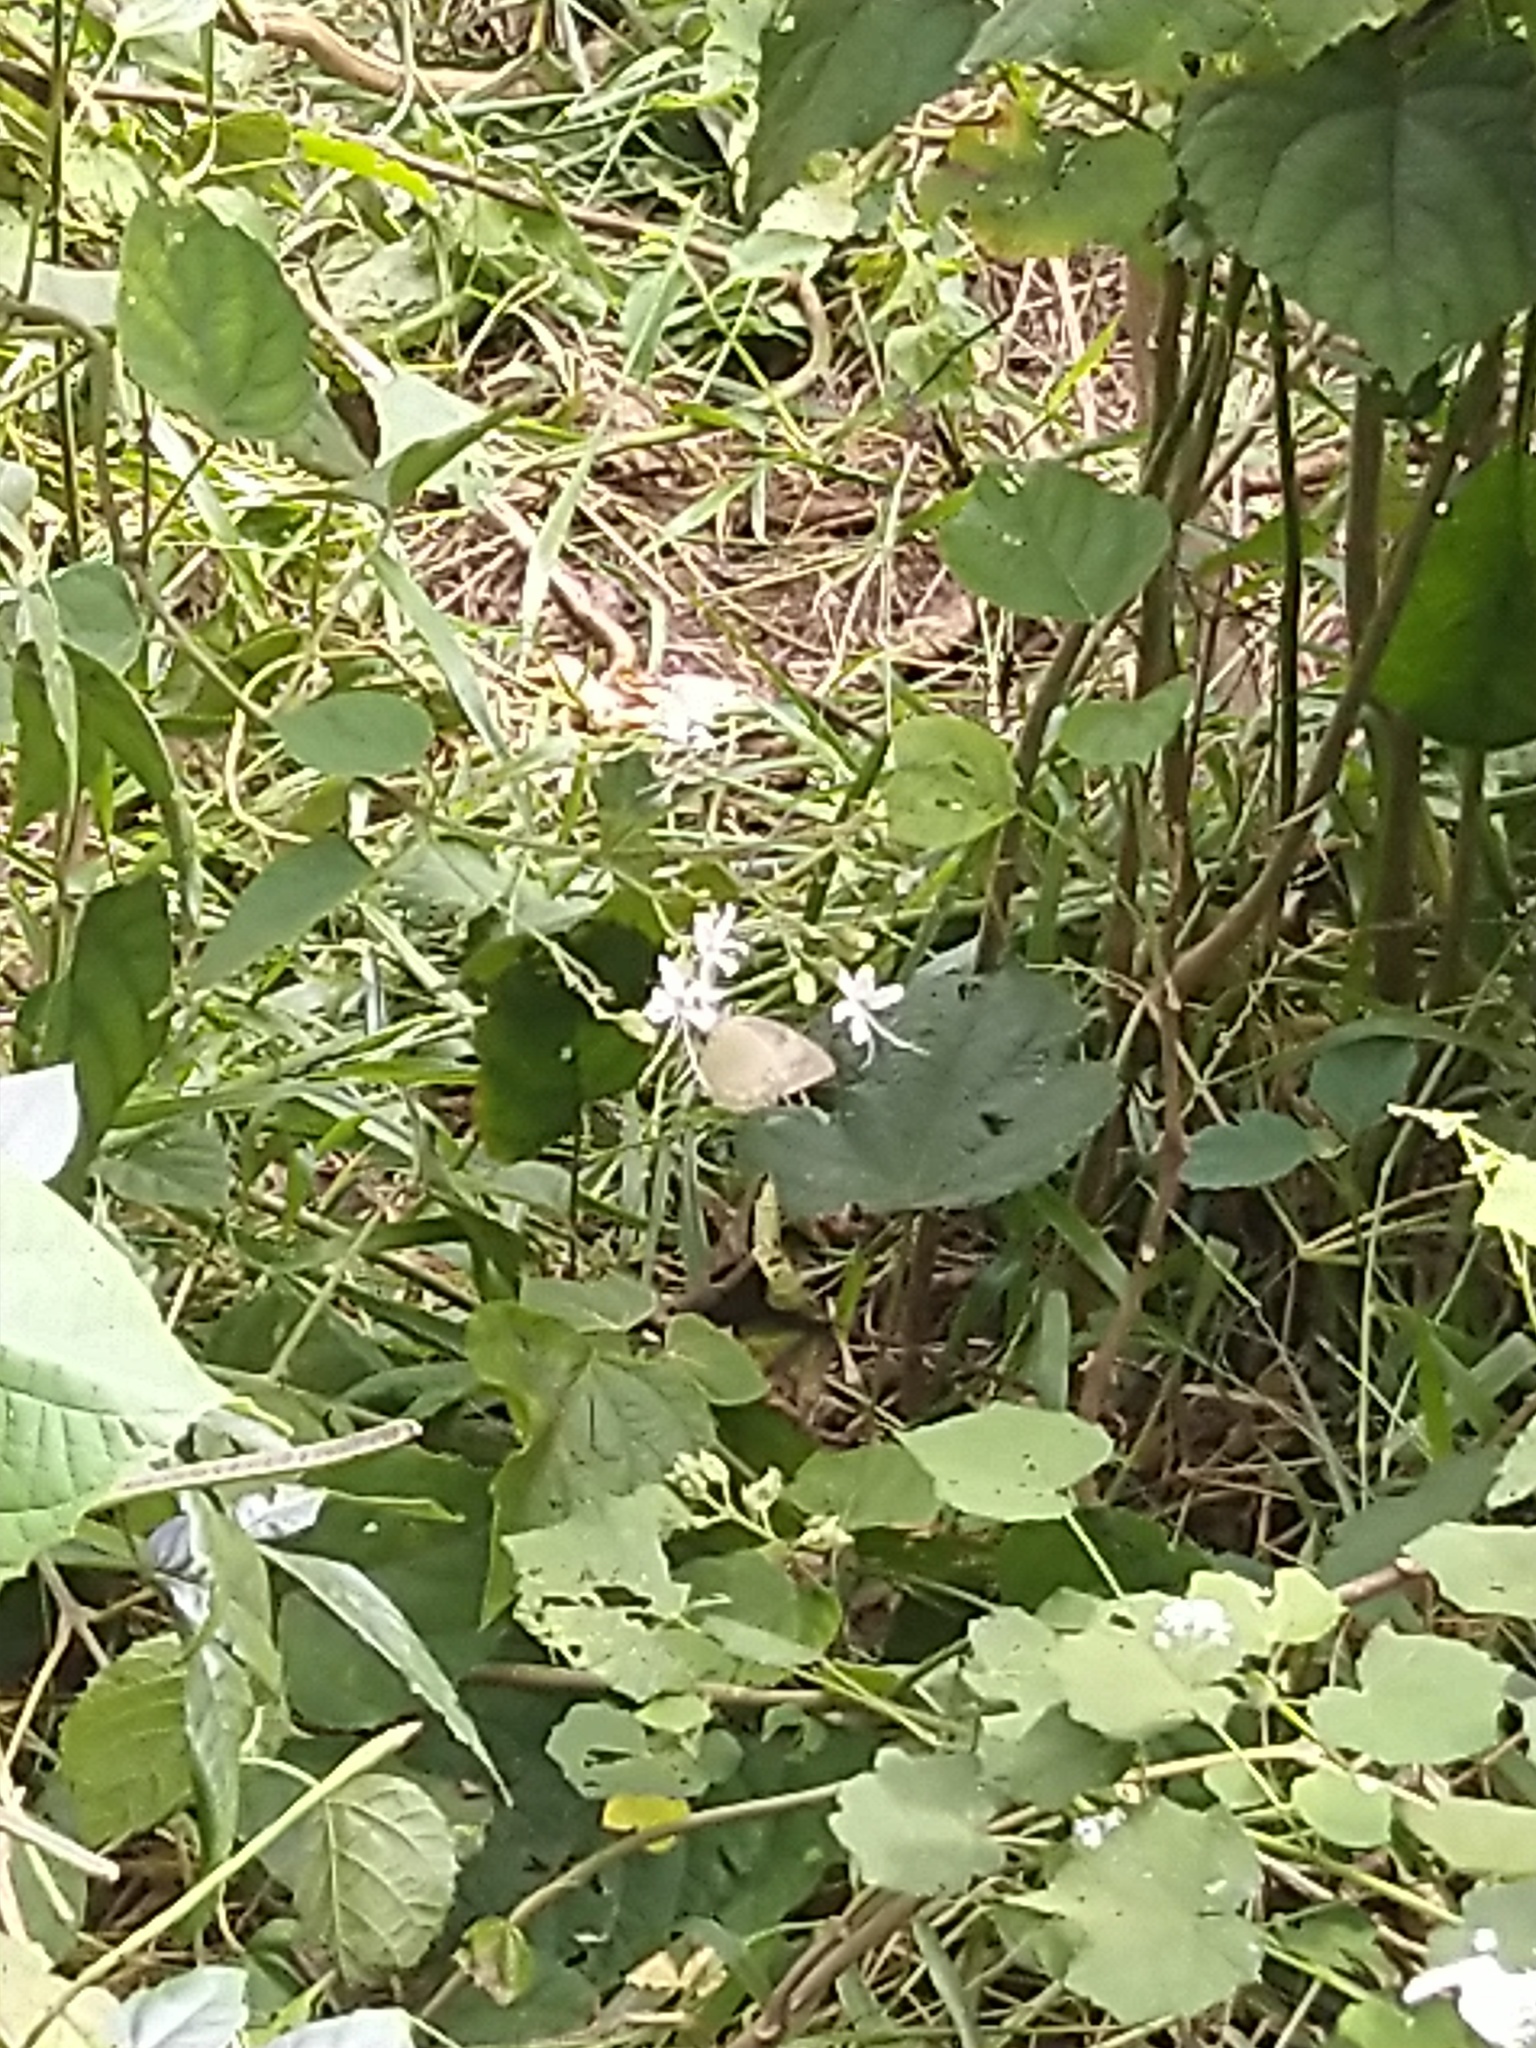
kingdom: Animalia
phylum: Arthropoda
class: Insecta
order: Lepidoptera
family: Pieridae
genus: Catopsilia
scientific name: Catopsilia pomona
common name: Common emigrant
